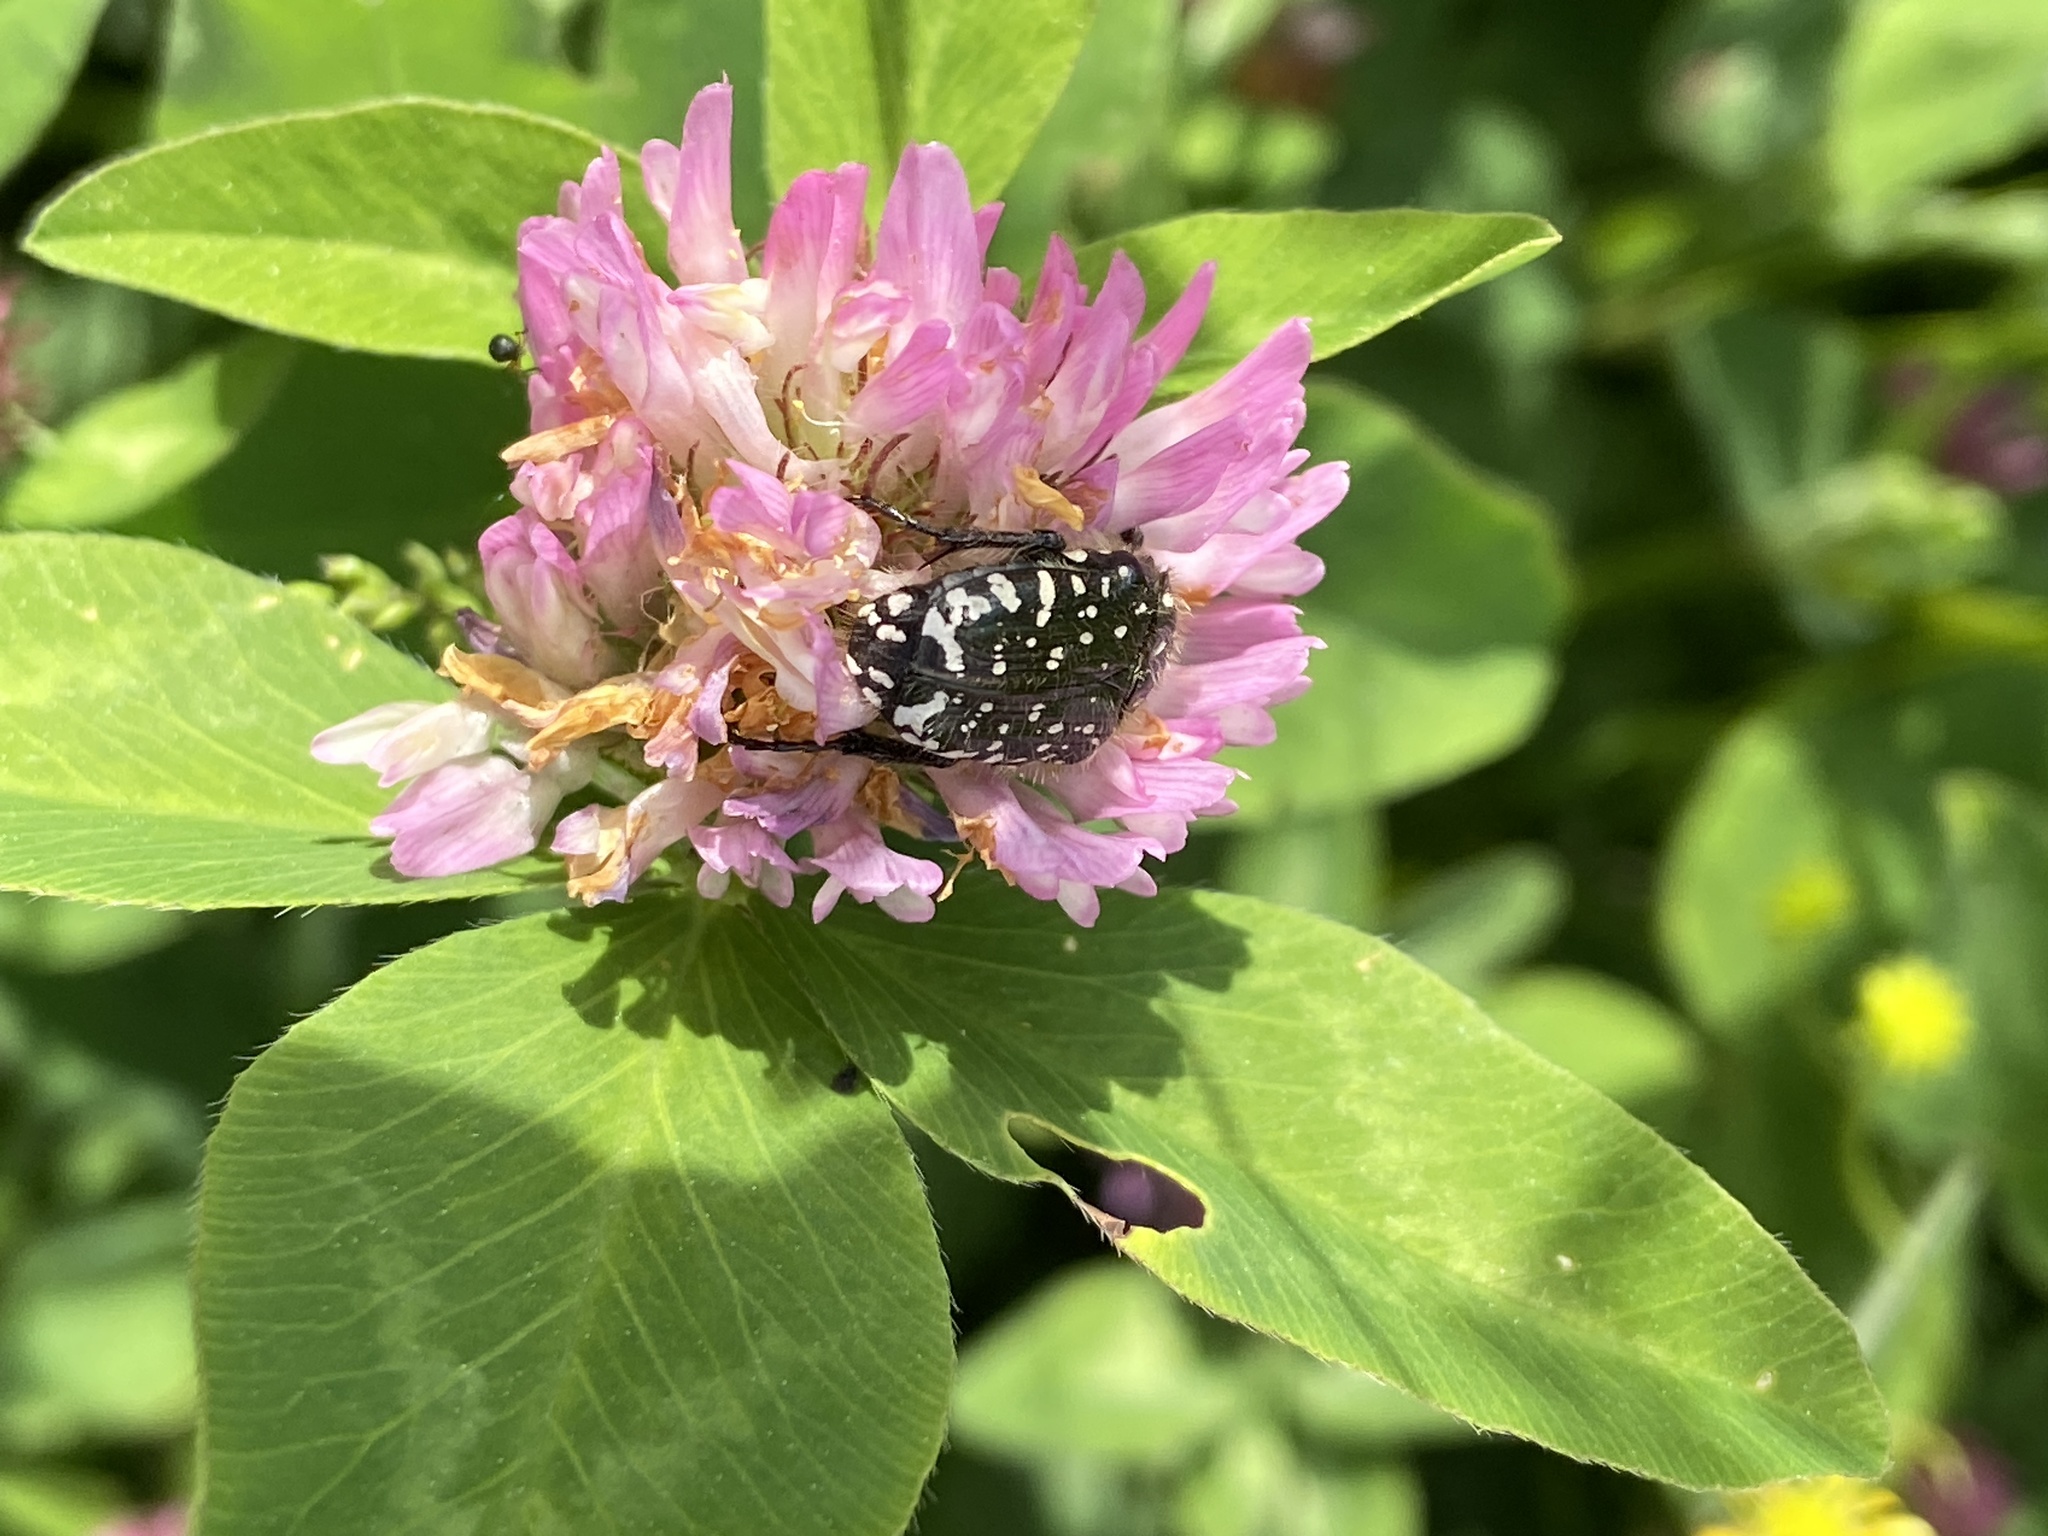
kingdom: Animalia
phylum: Arthropoda
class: Insecta
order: Coleoptera
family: Scarabaeidae
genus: Oxythyrea
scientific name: Oxythyrea funesta
